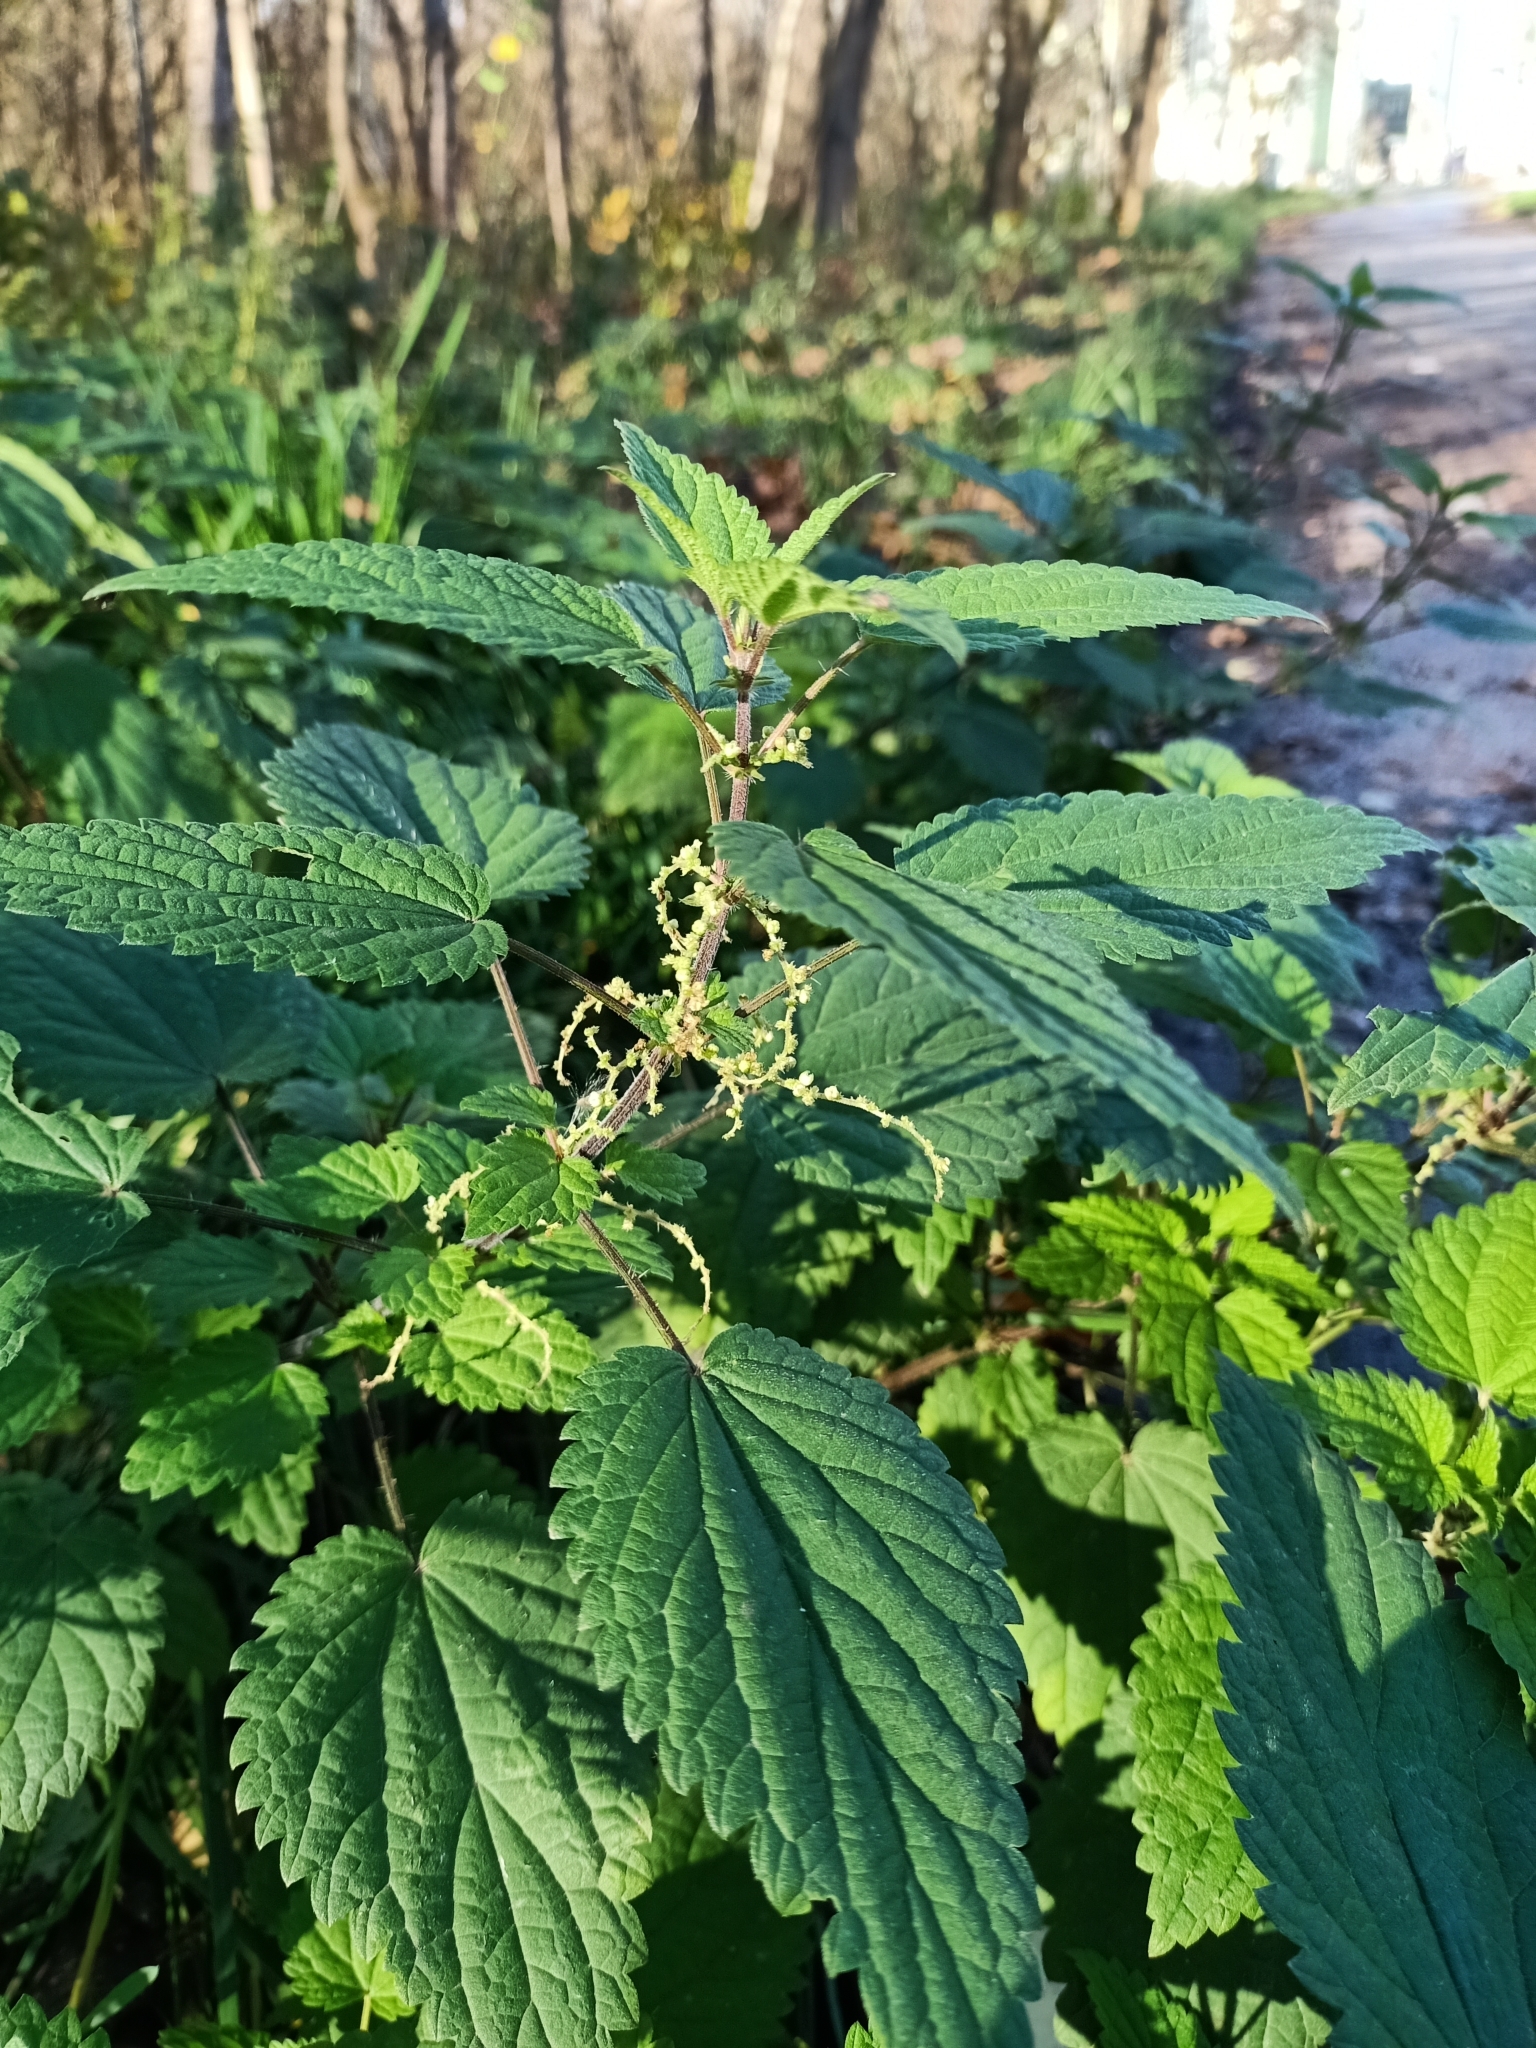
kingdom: Plantae
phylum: Tracheophyta
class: Magnoliopsida
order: Rosales
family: Urticaceae
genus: Urtica
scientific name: Urtica dioica
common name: Common nettle
